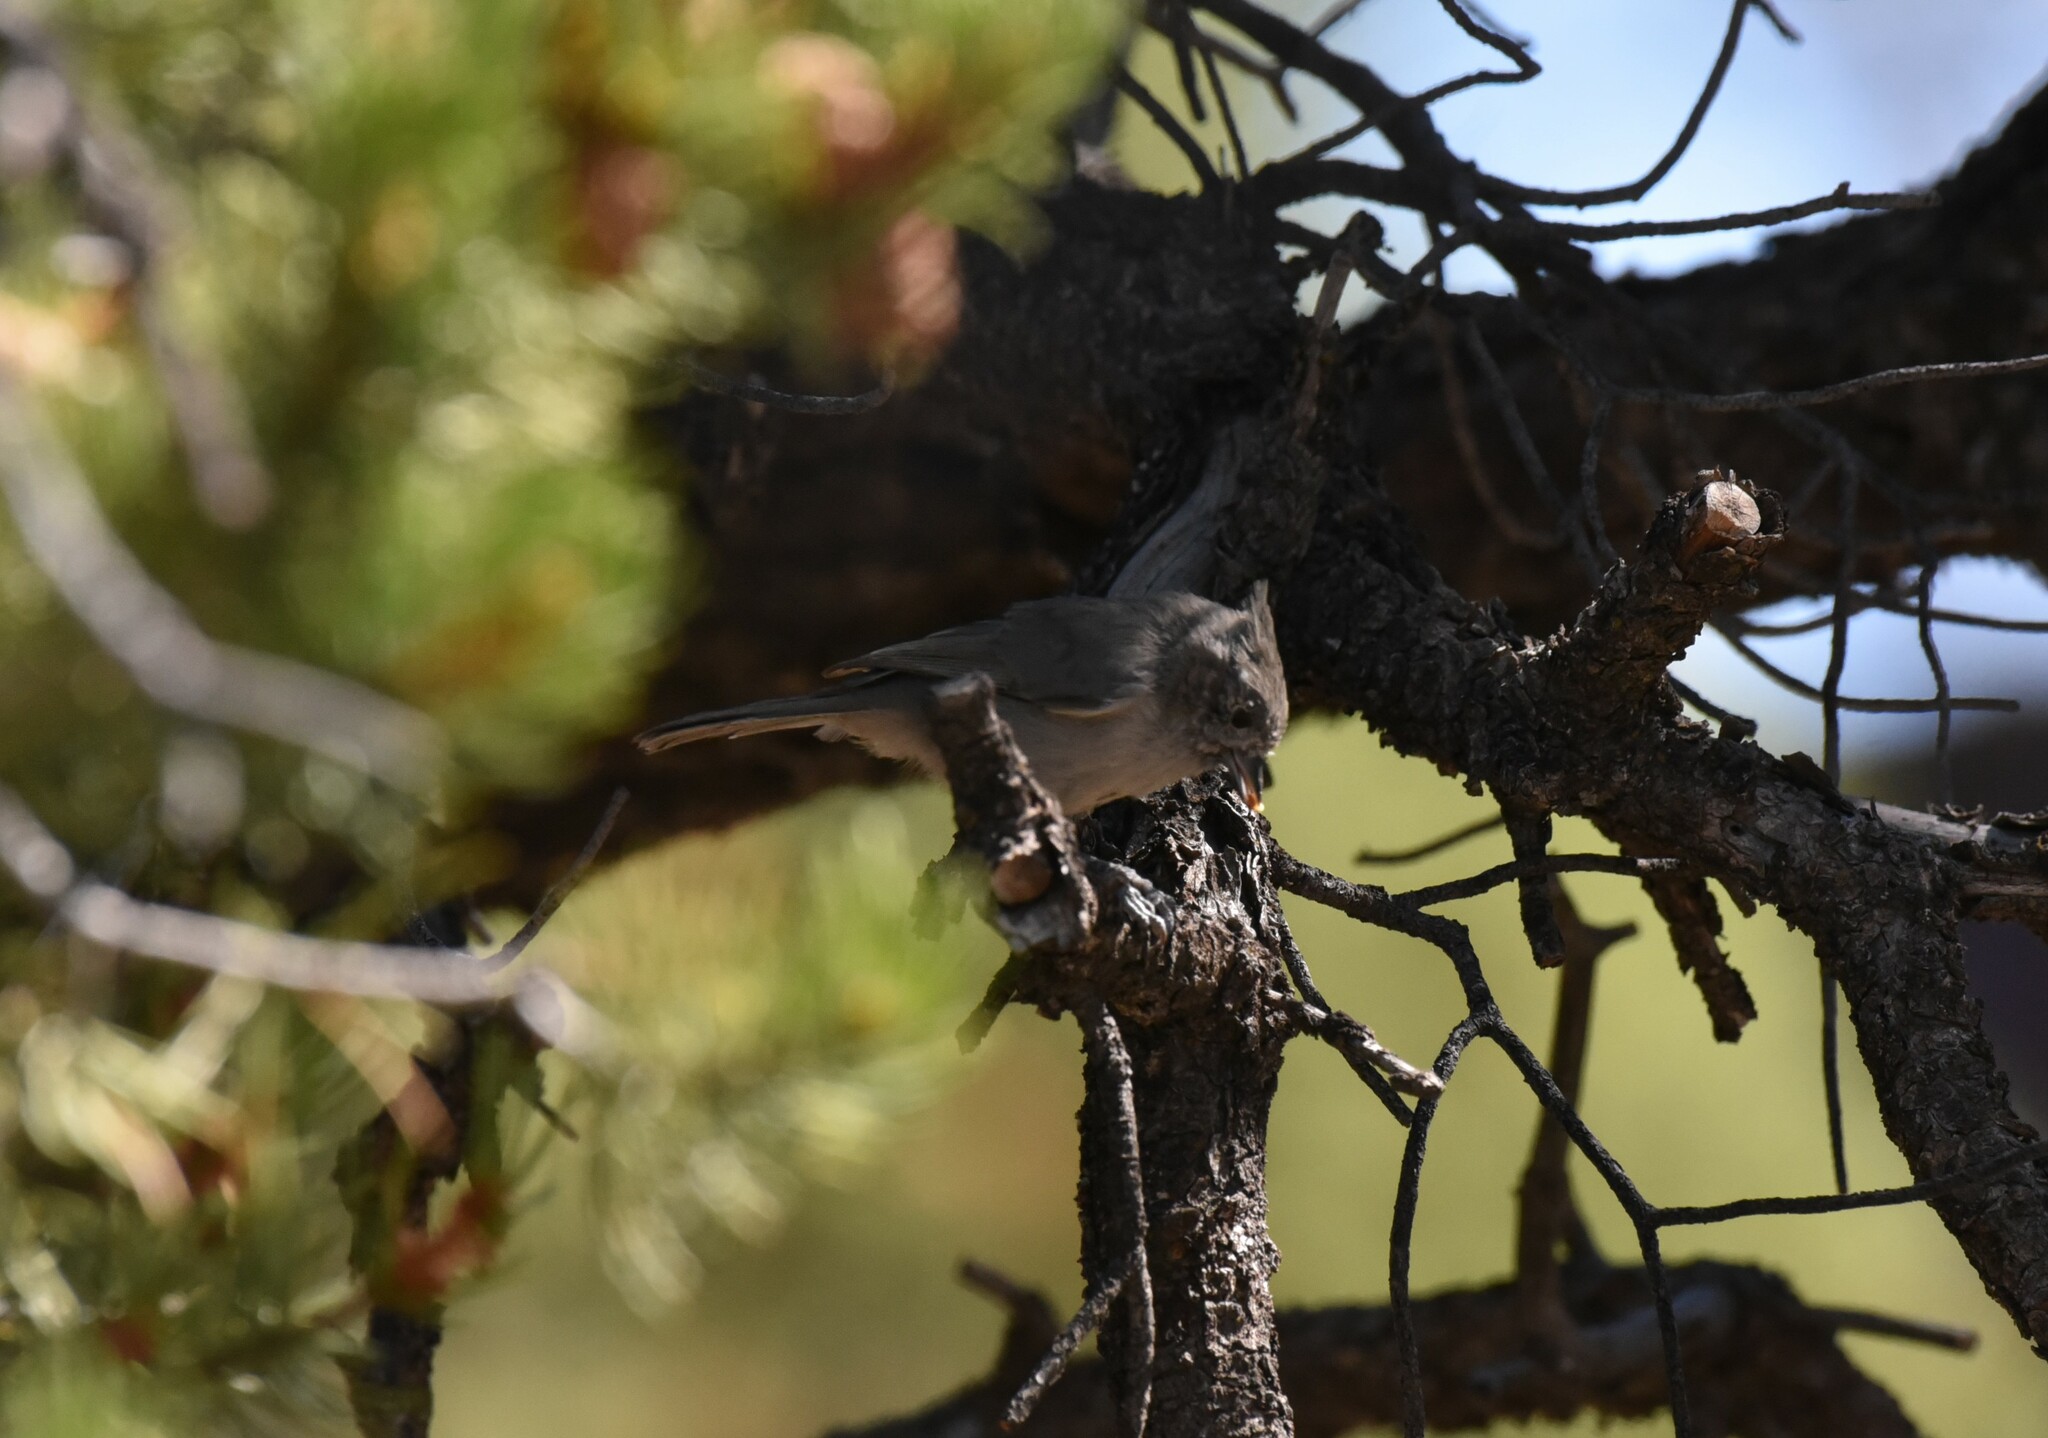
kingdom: Animalia
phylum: Chordata
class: Aves
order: Passeriformes
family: Paridae
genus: Baeolophus
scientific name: Baeolophus ridgwayi
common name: Juniper titmouse
